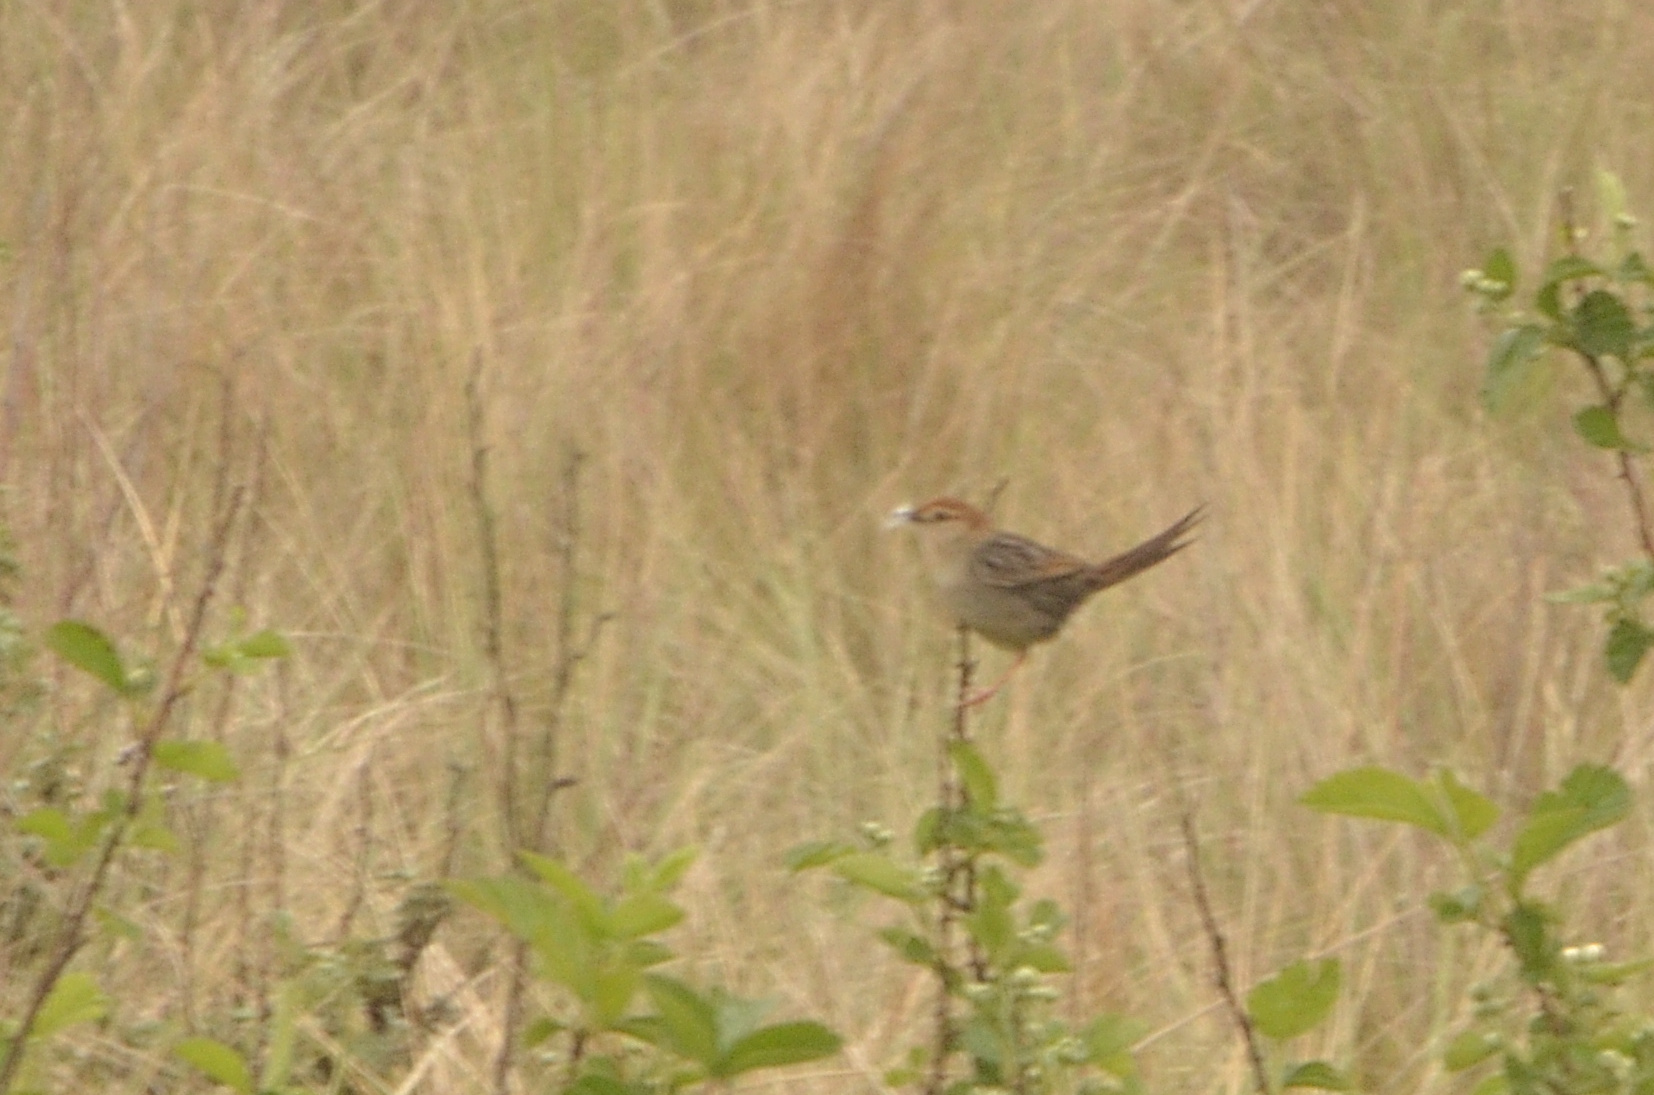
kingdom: Animalia
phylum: Chordata
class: Aves
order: Passeriformes
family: Cisticolidae
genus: Cisticola
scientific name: Cisticola tinniens
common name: Levaillant's cisticola
